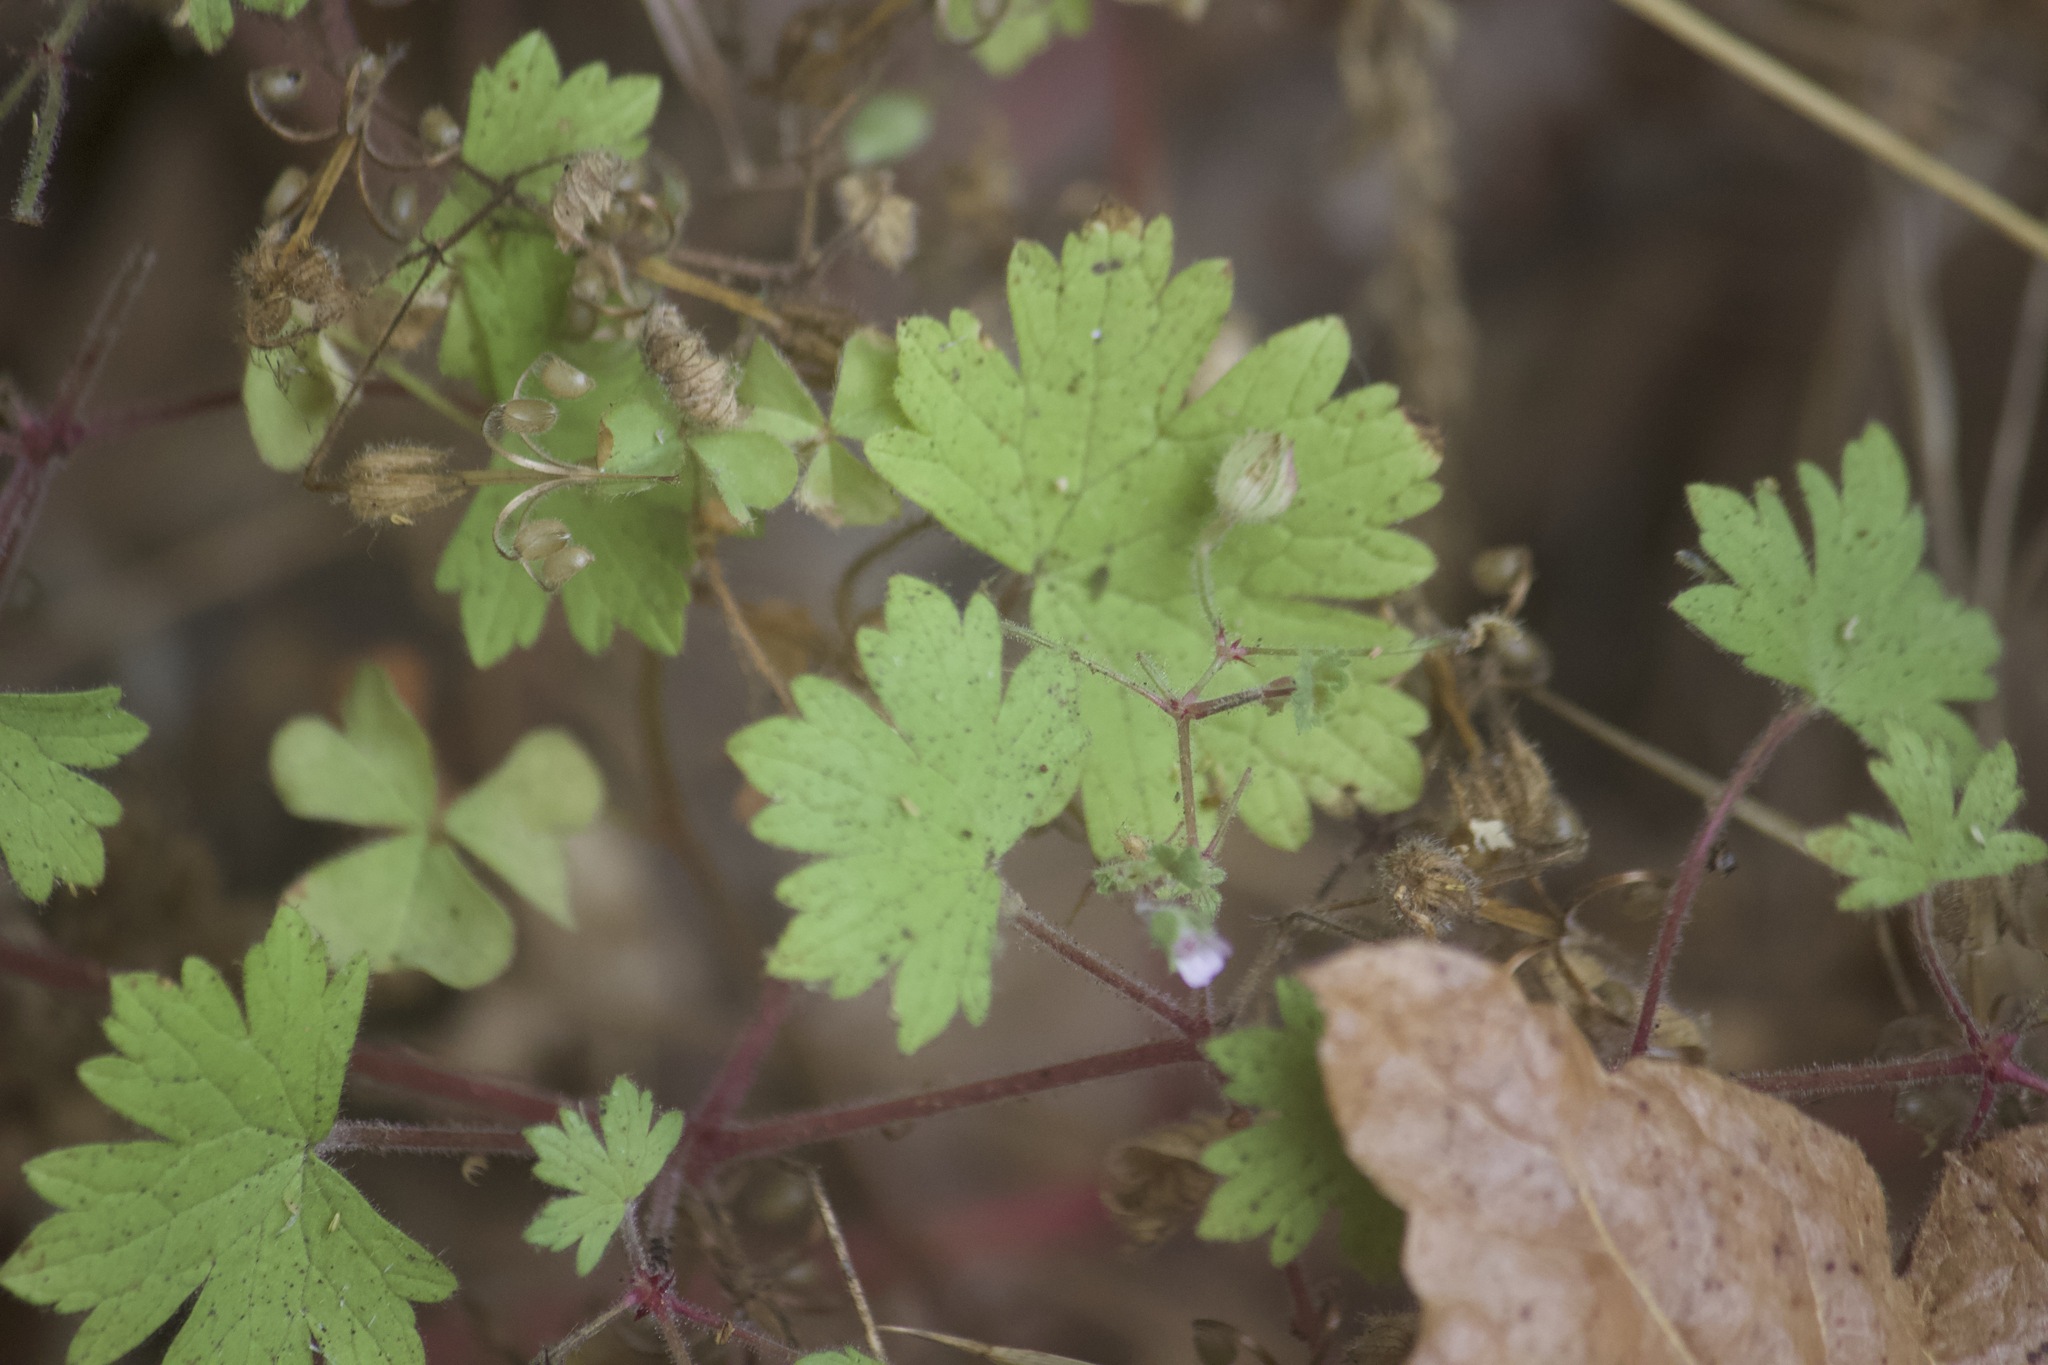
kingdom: Plantae
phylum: Tracheophyta
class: Magnoliopsida
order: Geraniales
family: Geraniaceae
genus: Geranium
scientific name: Geranium rotundifolium
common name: Round-leaved crane's-bill
